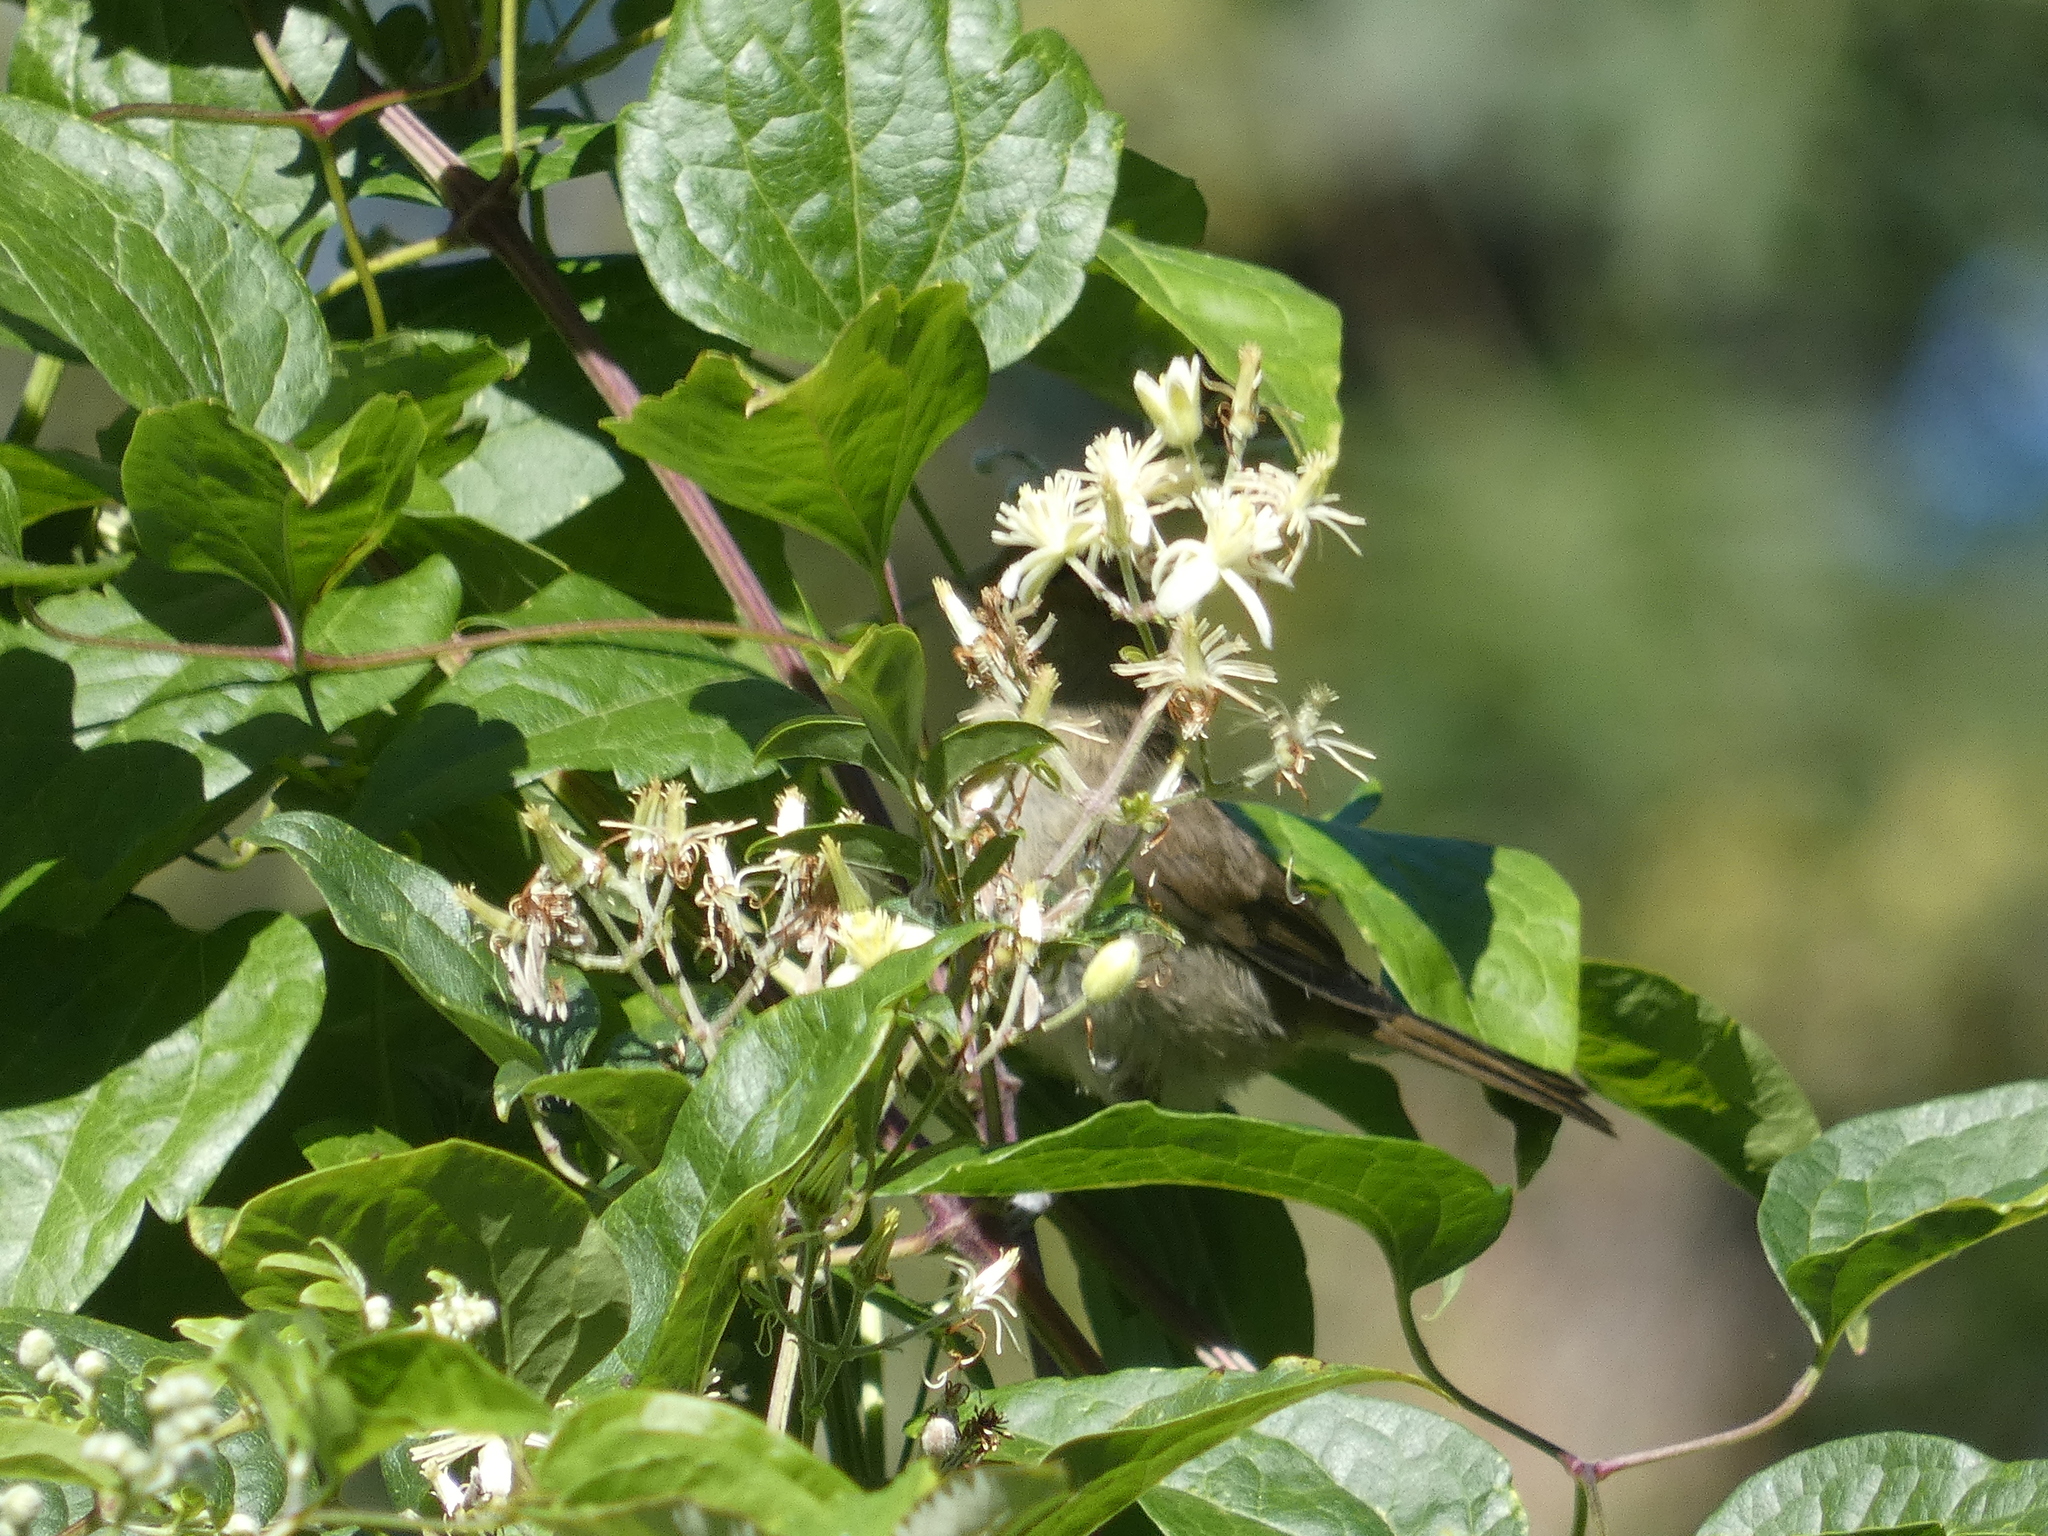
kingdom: Animalia
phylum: Chordata
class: Aves
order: Passeriformes
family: Sylviidae
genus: Sylvia
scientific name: Sylvia borin
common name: Garden warbler
